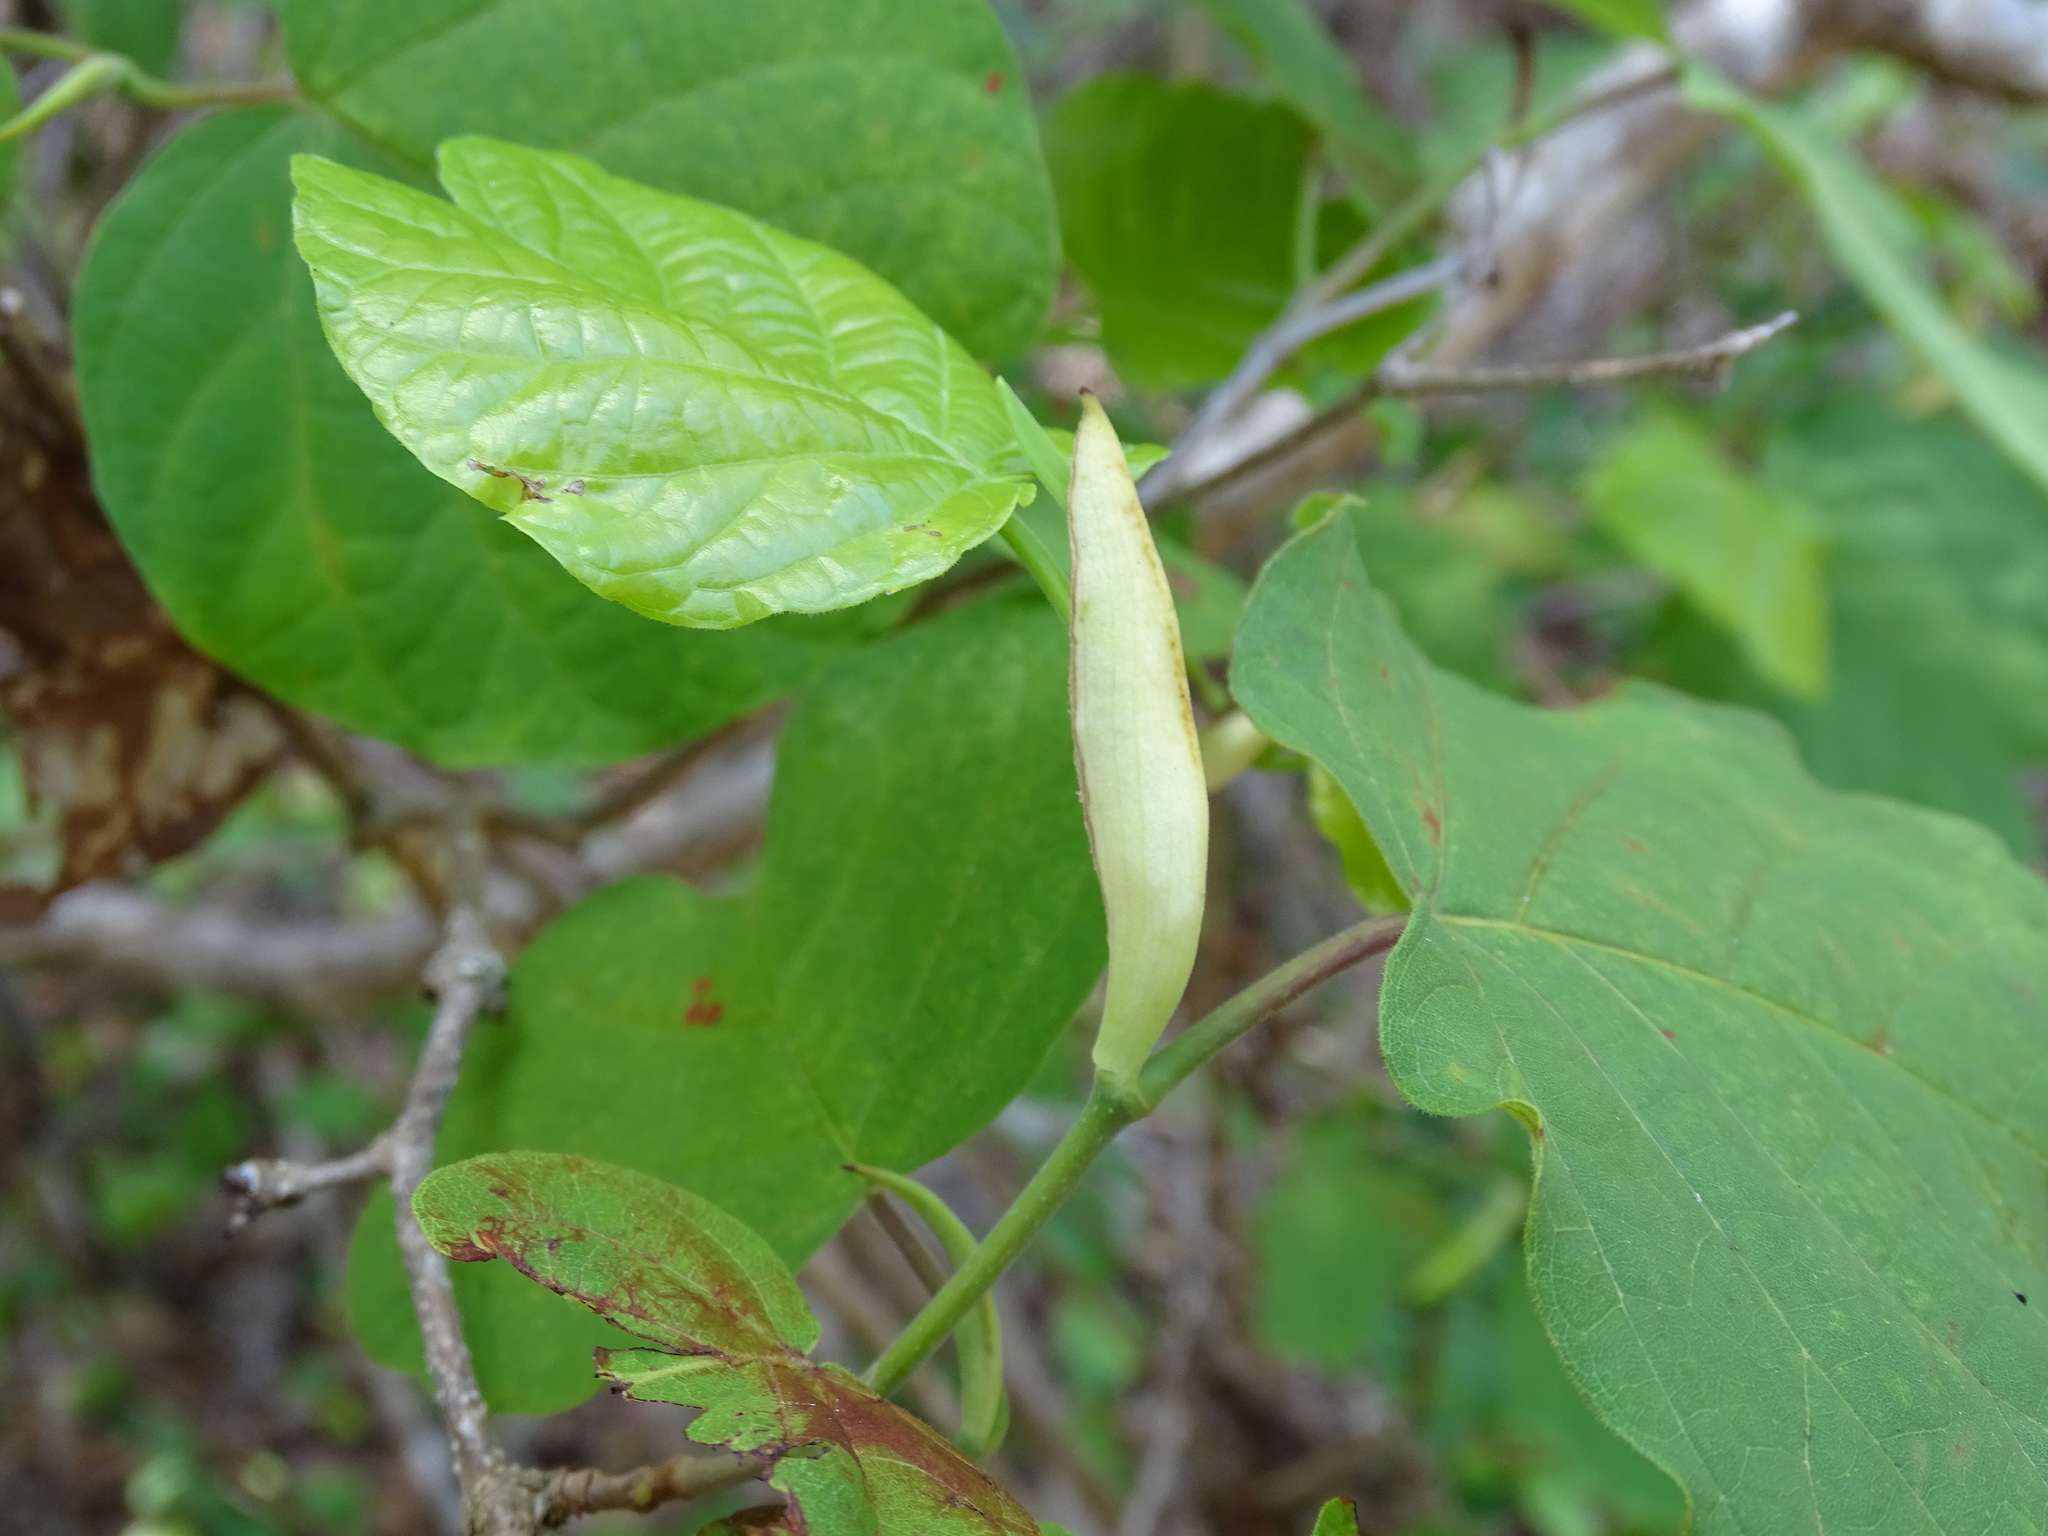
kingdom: Plantae
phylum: Tracheophyta
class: Magnoliopsida
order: Caryophyllales
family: Polygonaceae
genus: Neomillspaughia
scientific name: Neomillspaughia emarginata
